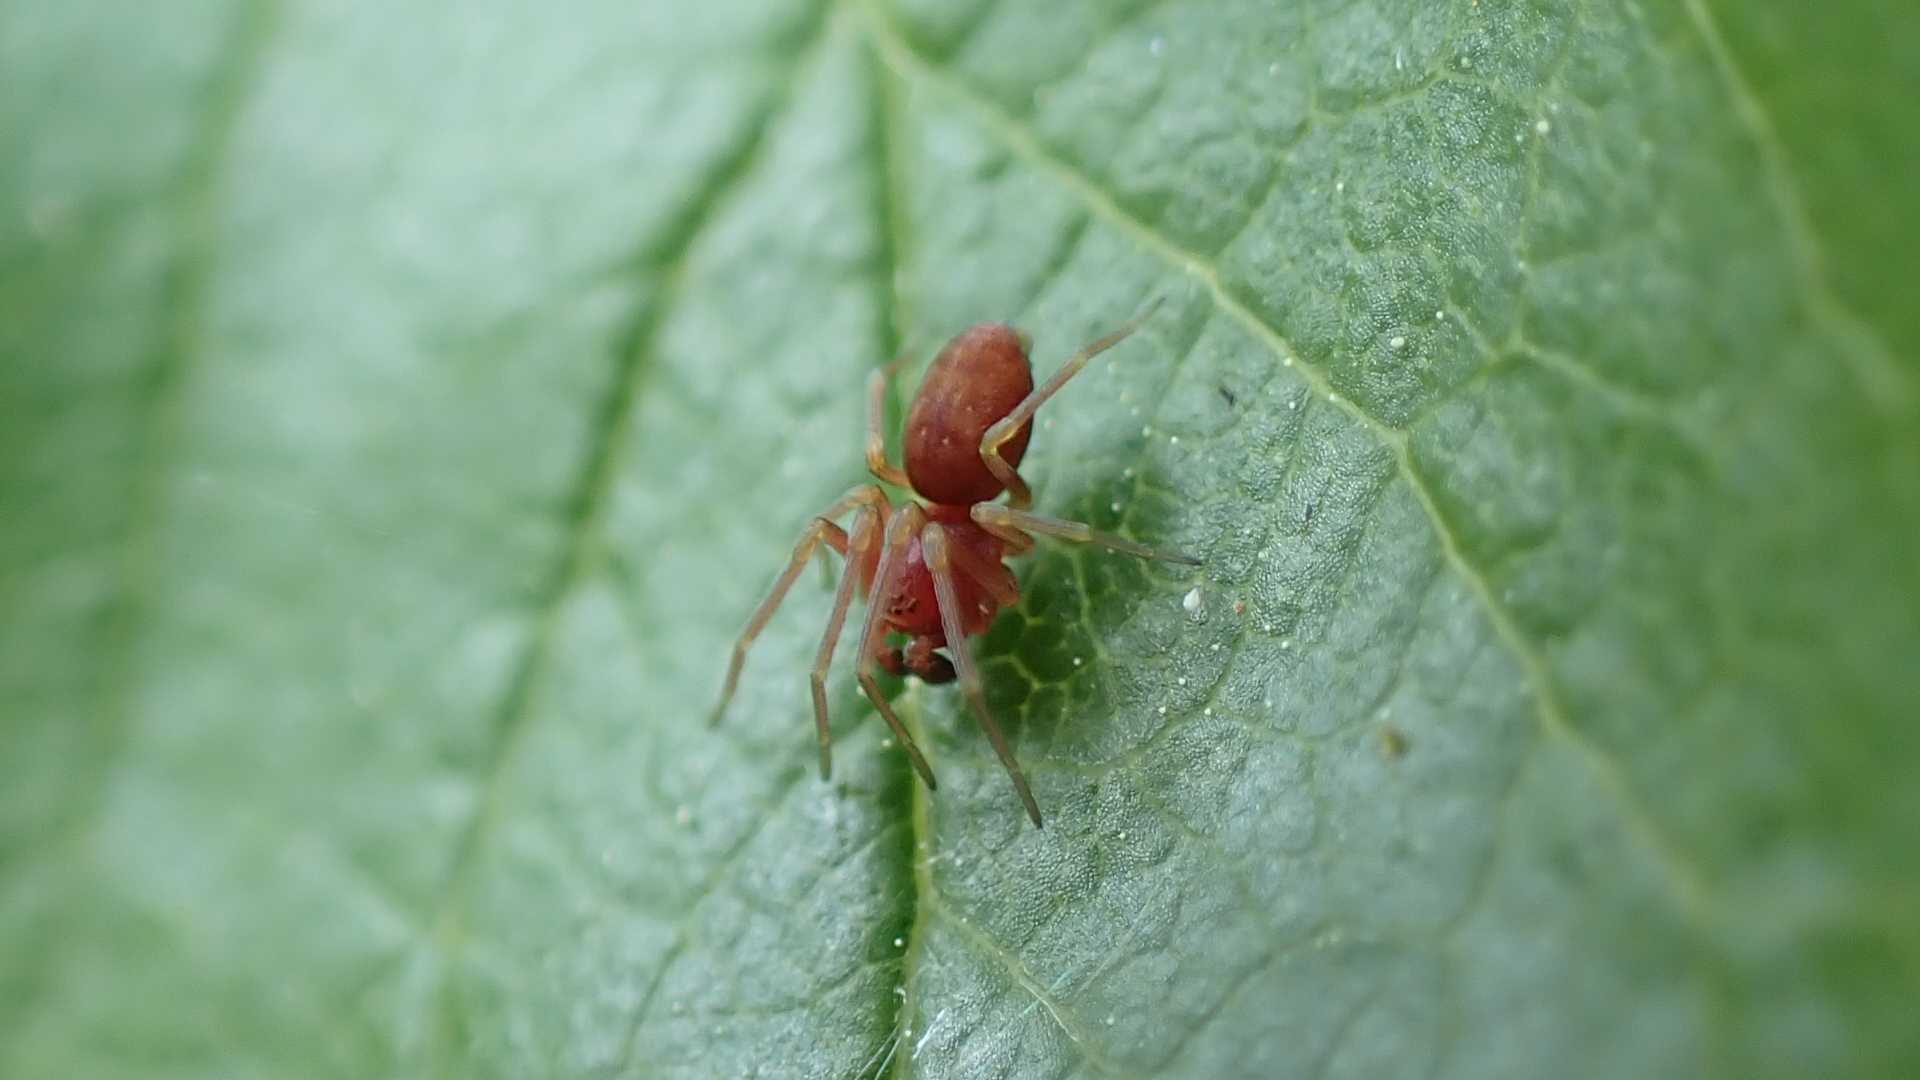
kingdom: Animalia
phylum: Arthropoda
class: Arachnida
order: Araneae
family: Dictynidae
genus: Nigma
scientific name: Nigma flavescens
